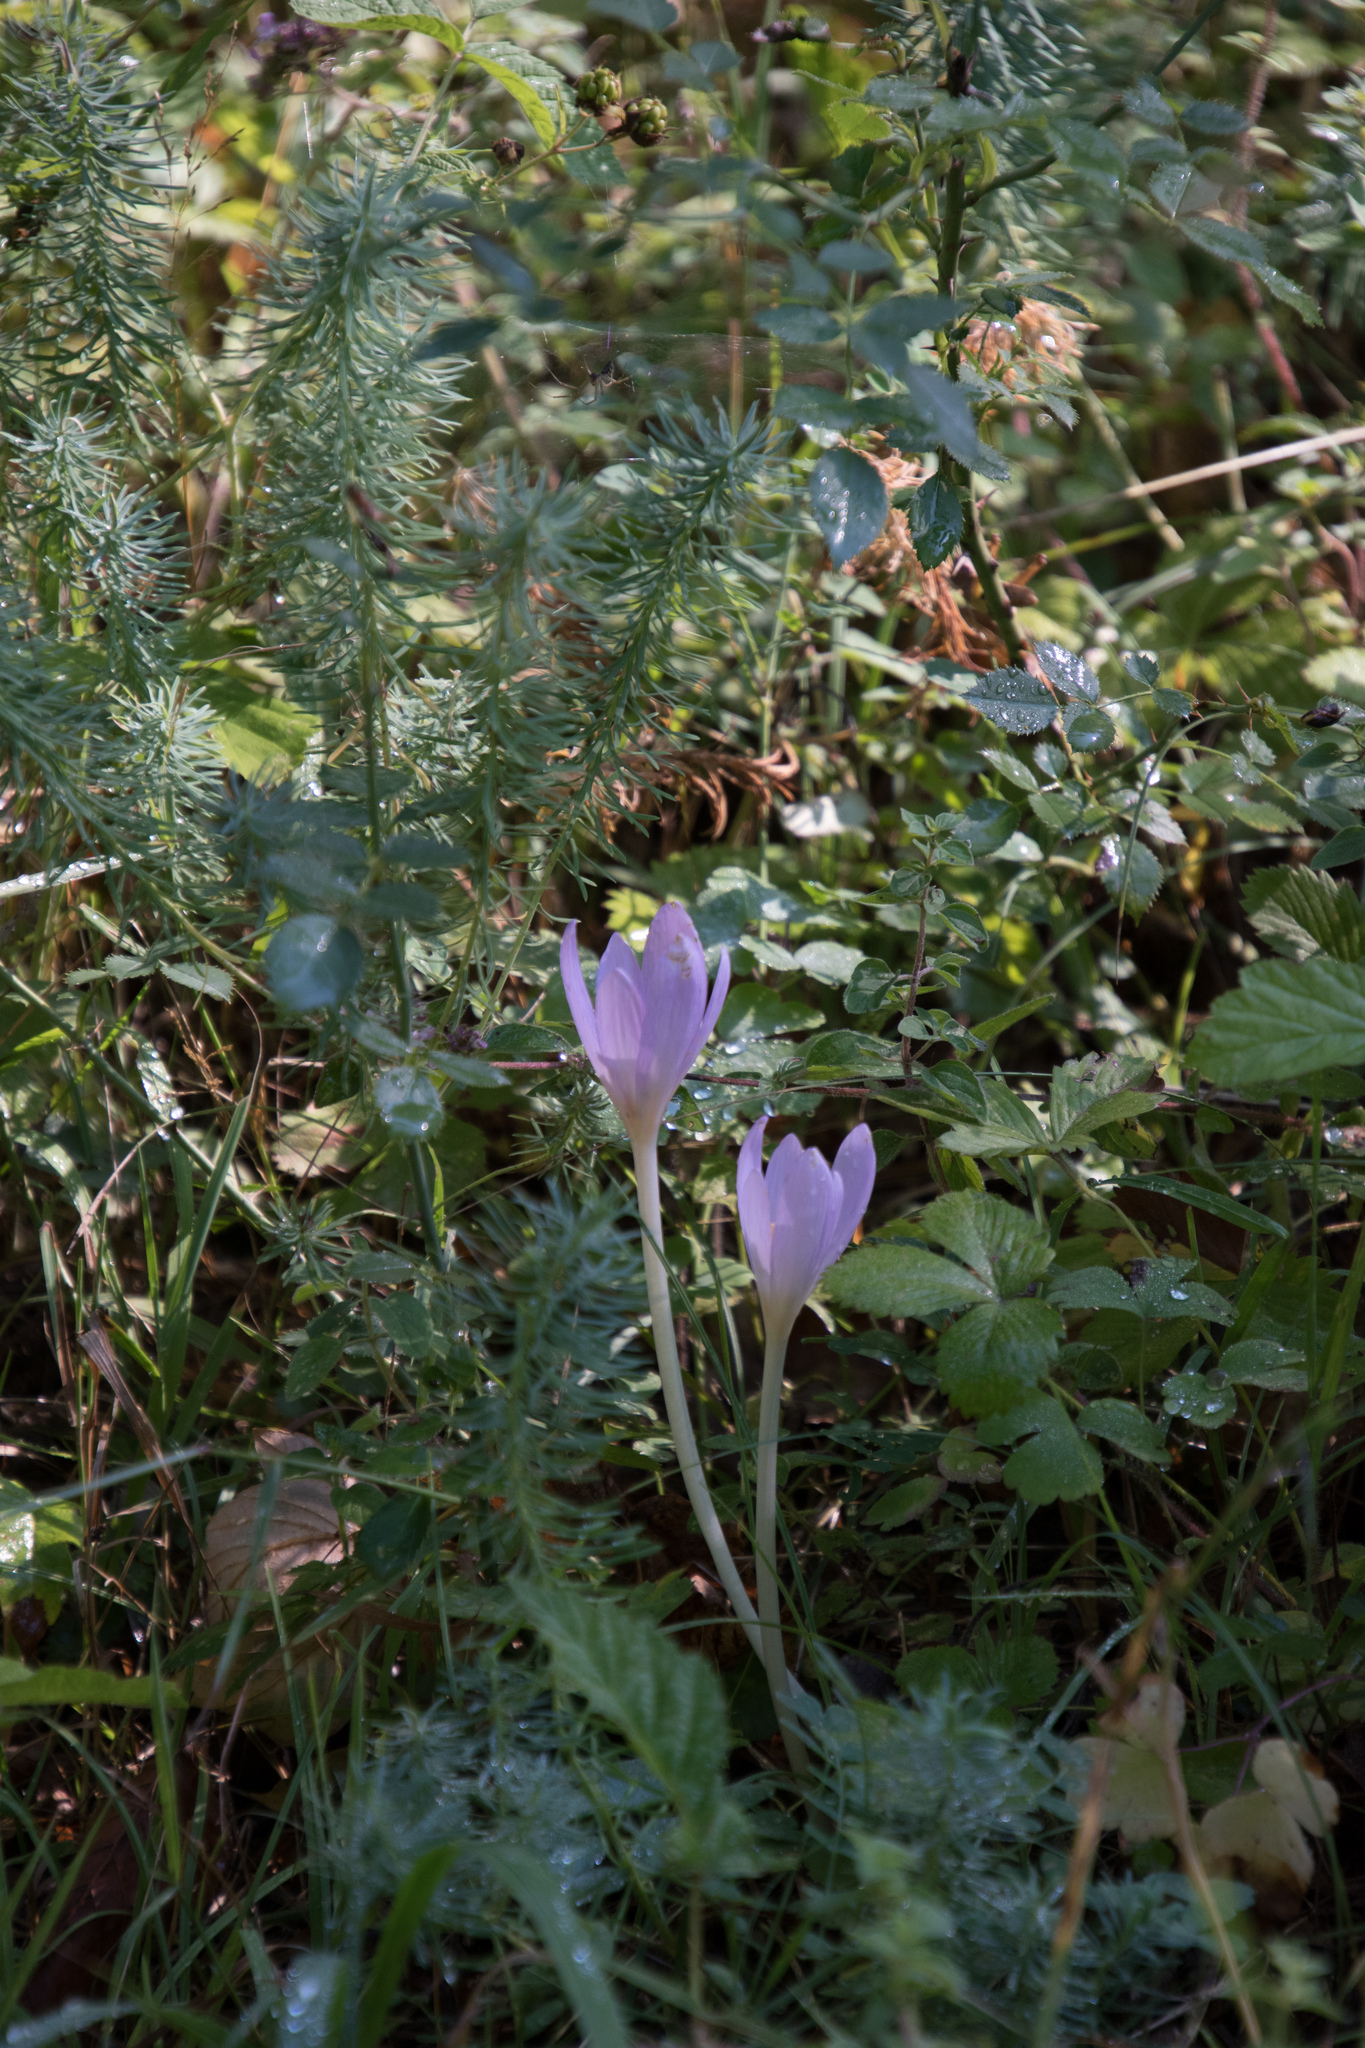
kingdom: Plantae
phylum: Tracheophyta
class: Liliopsida
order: Liliales
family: Colchicaceae
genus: Colchicum
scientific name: Colchicum autumnale
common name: Autumn crocus
